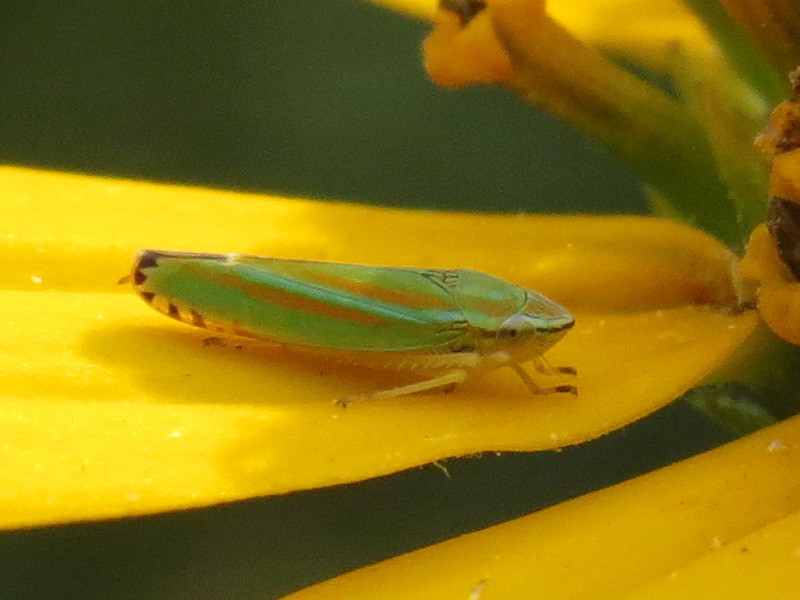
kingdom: Animalia
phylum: Arthropoda
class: Insecta
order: Hemiptera
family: Cicadellidae
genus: Graphocephala
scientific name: Graphocephala versuta
